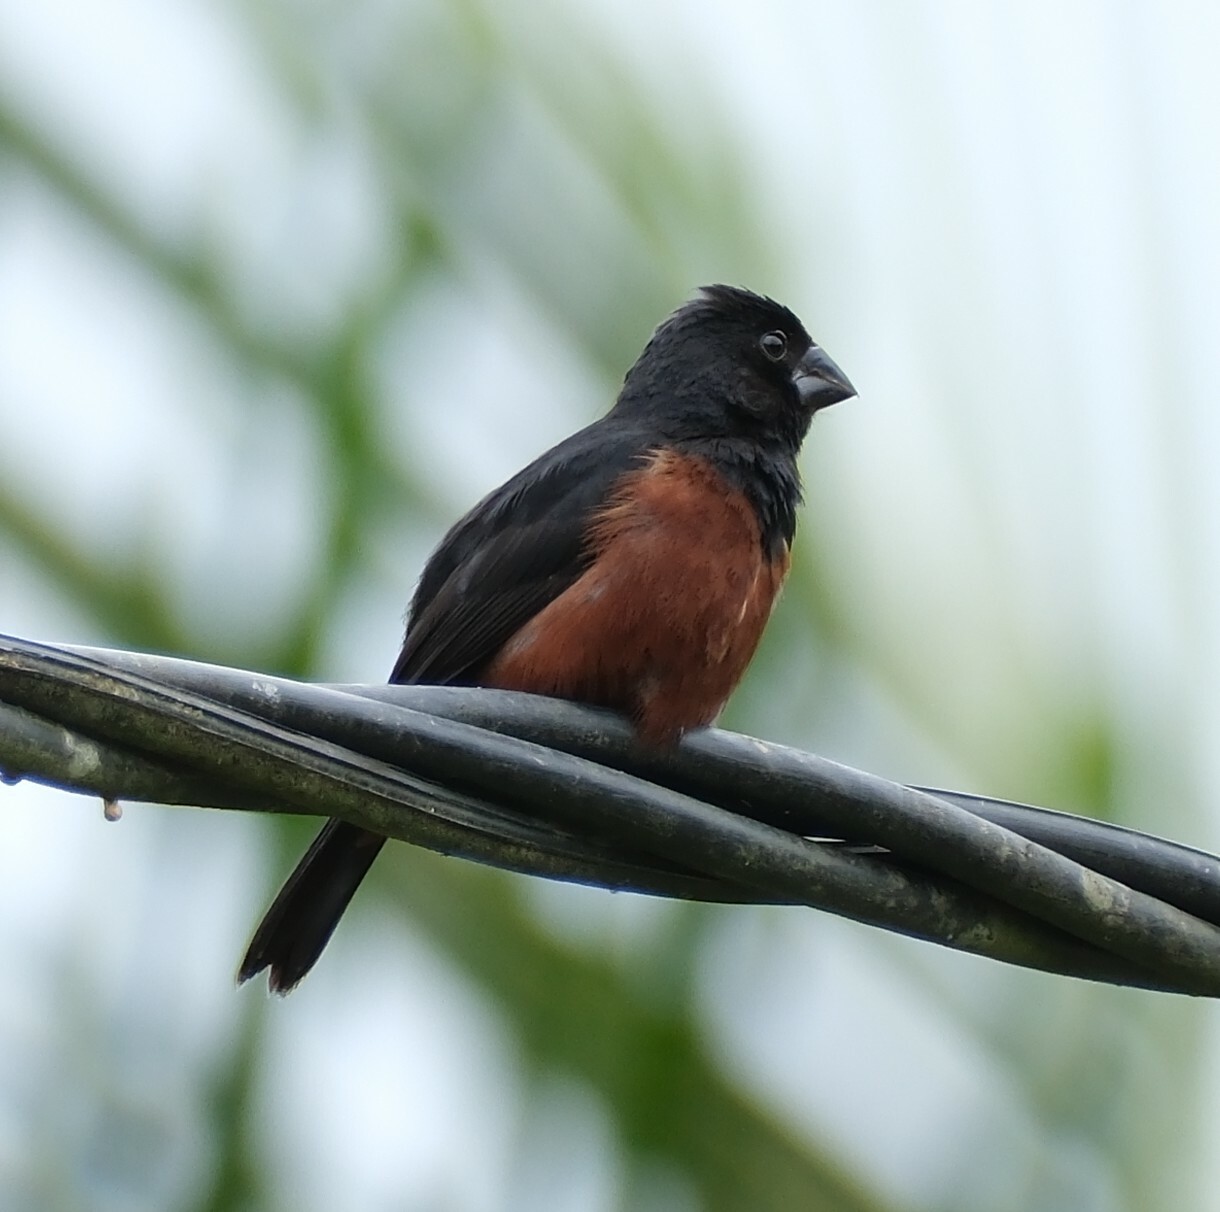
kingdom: Animalia
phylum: Chordata
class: Aves
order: Passeriformes
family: Thraupidae
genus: Sporophila
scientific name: Sporophila angolensis
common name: Chestnut-bellied seed-finch
